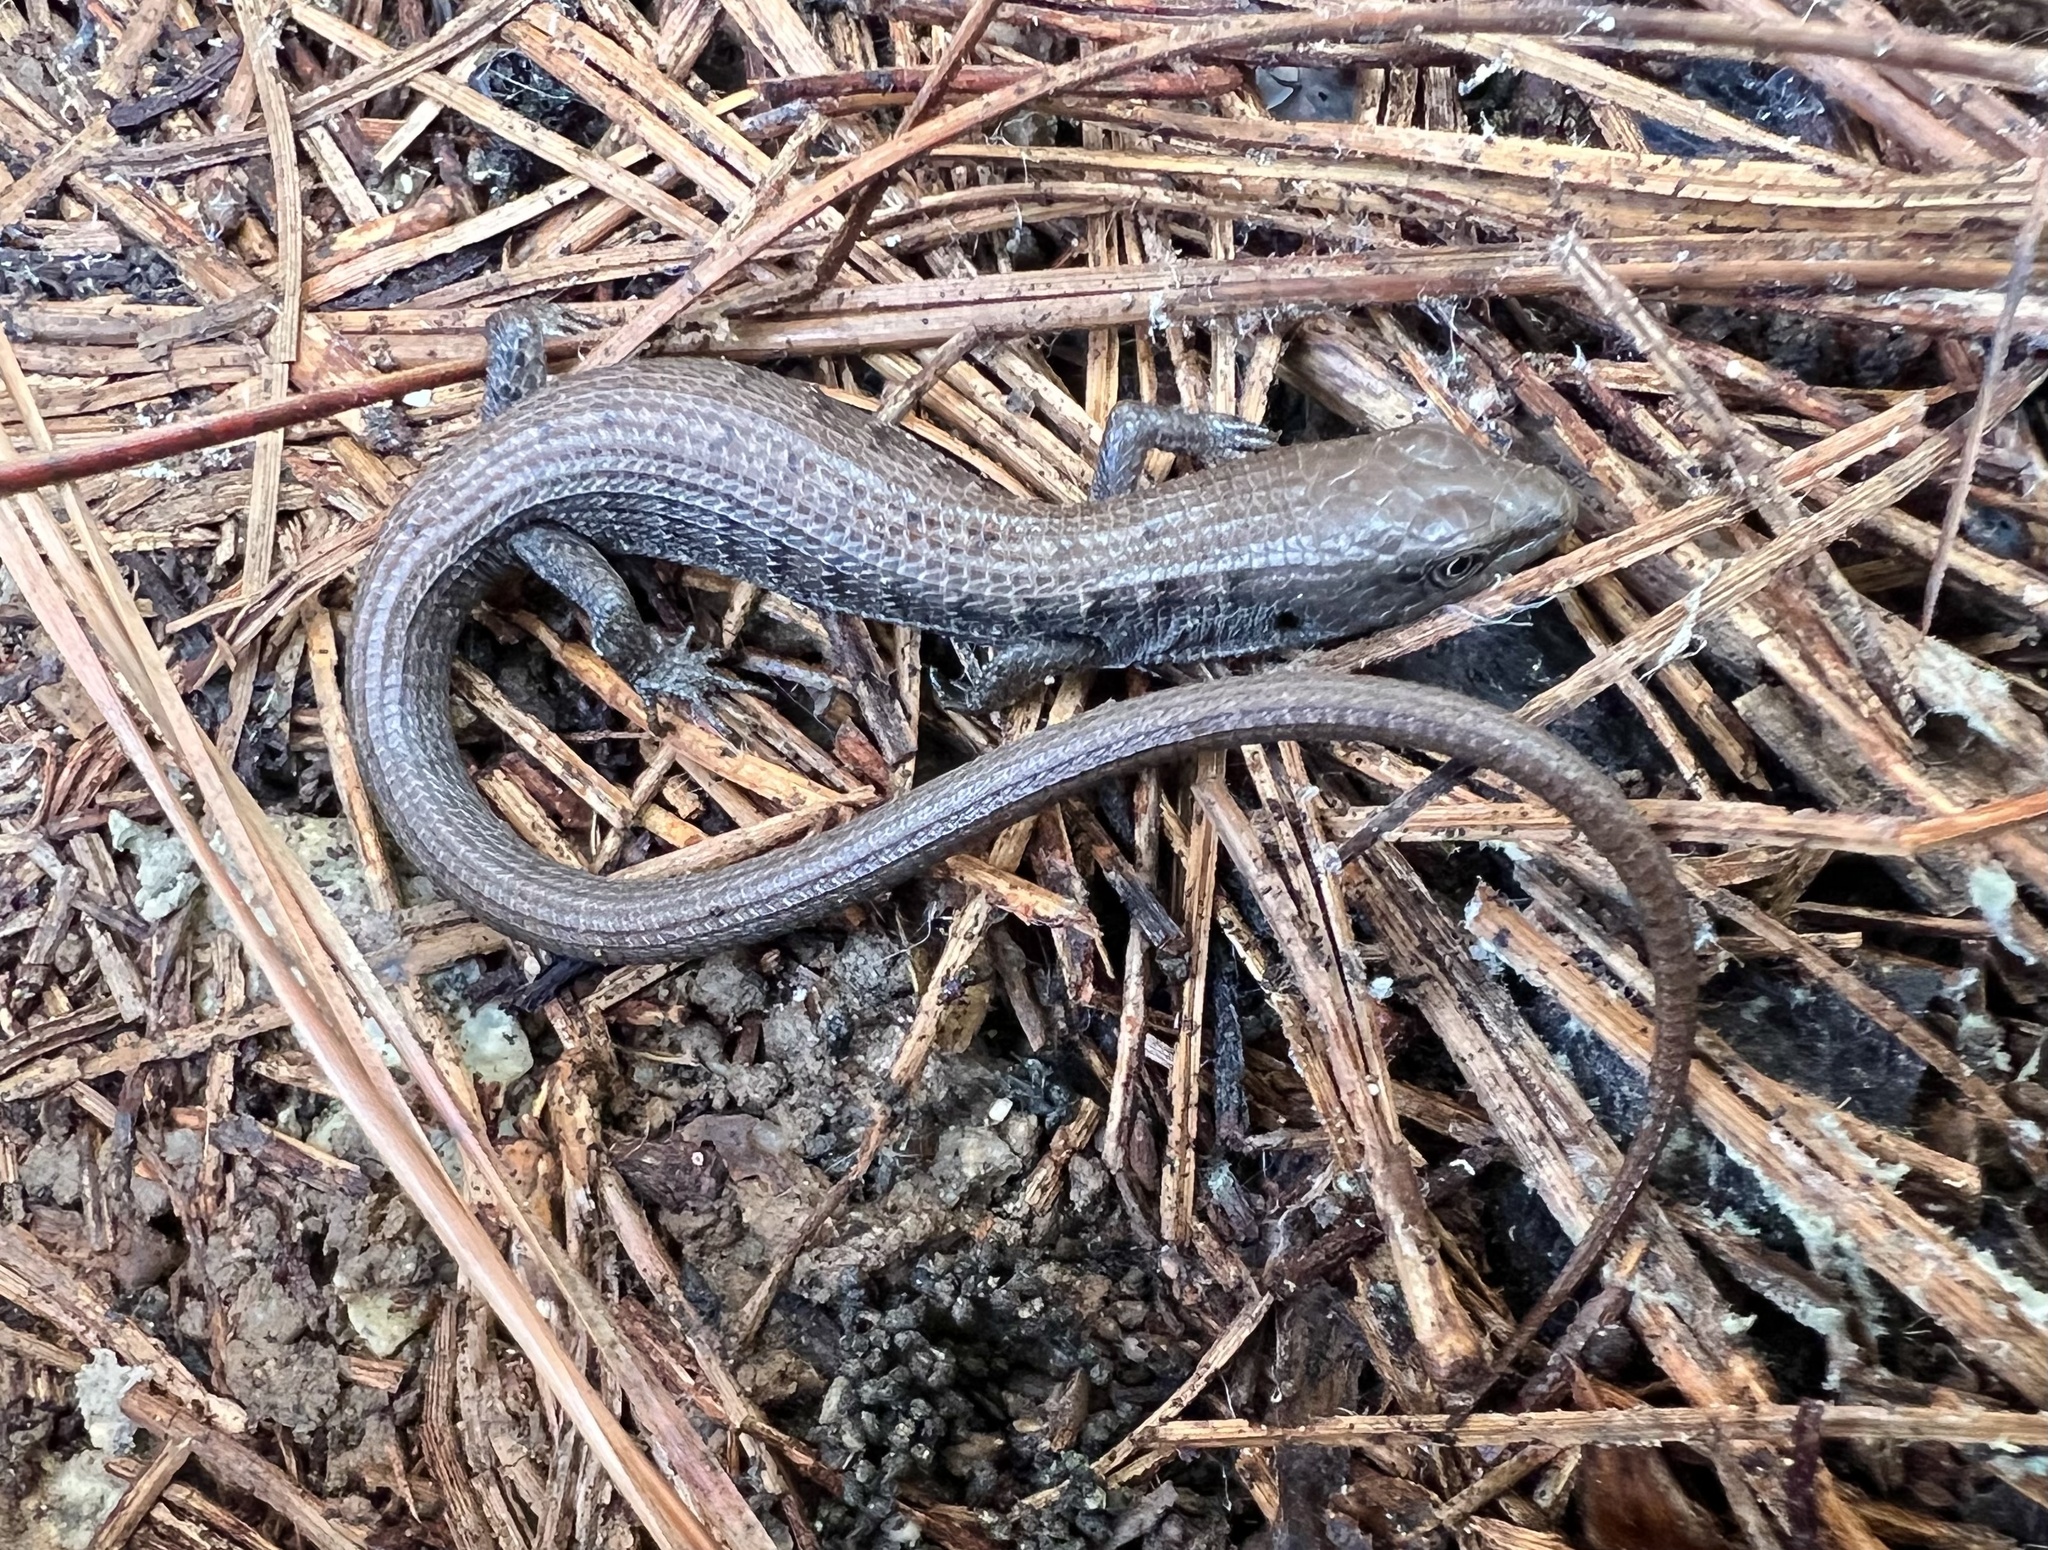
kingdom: Animalia
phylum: Chordata
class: Squamata
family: Anguidae
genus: Elgaria
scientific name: Elgaria multicarinata
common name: Southern alligator lizard
